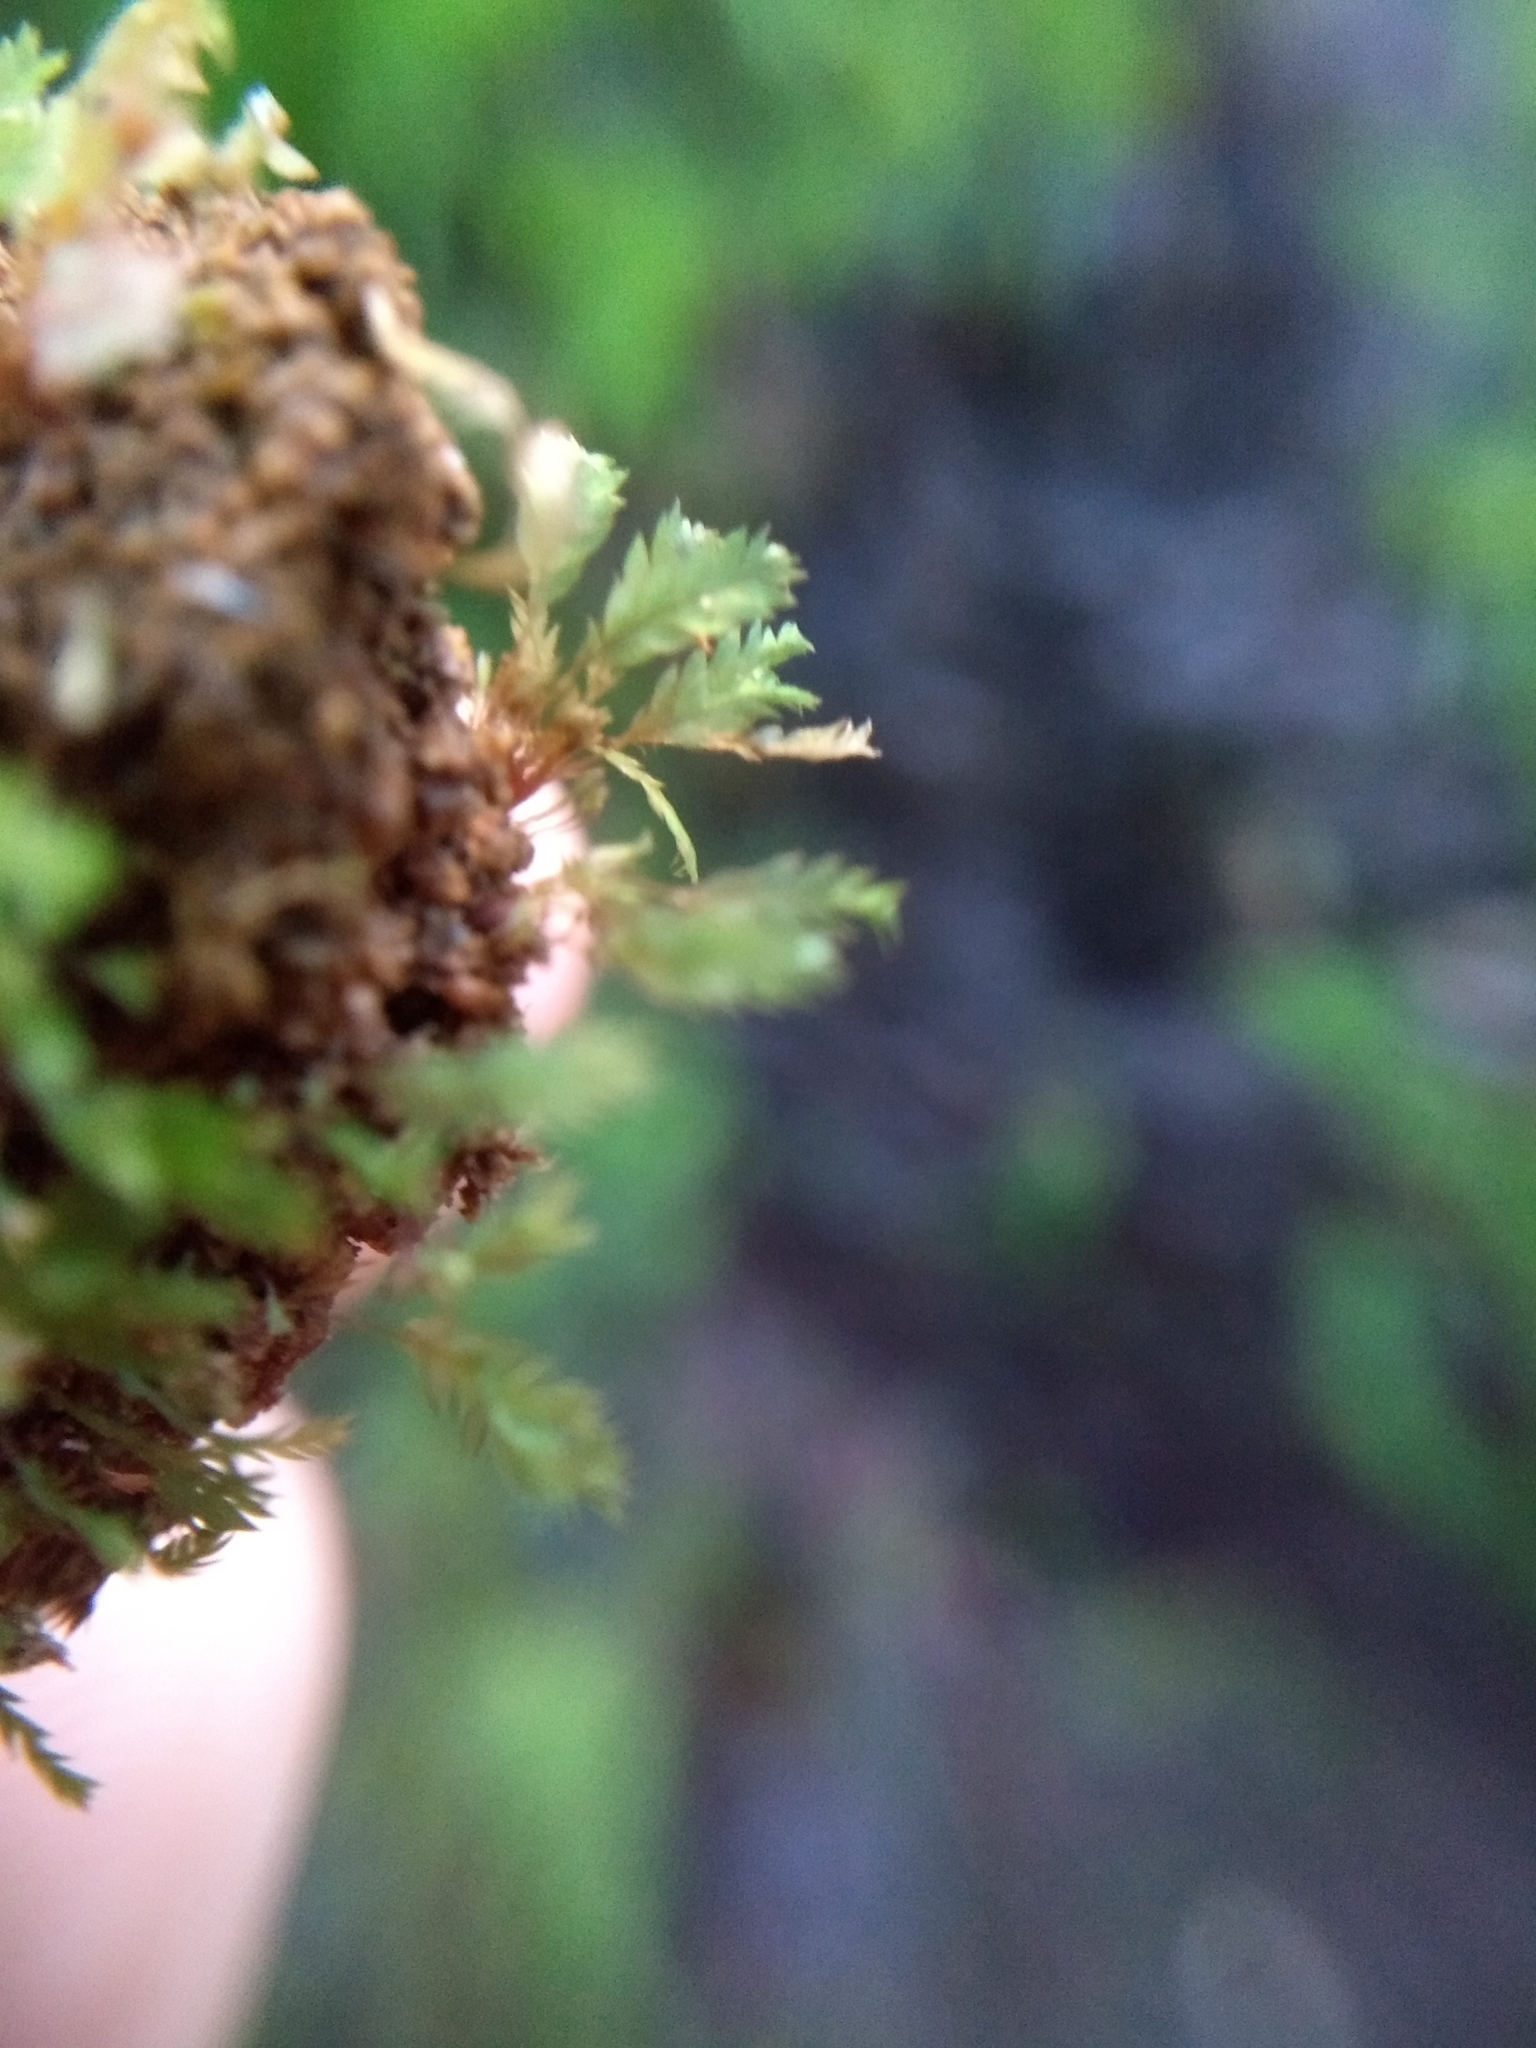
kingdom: Plantae
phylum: Bryophyta
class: Bryopsida
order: Dicranales
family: Schistostegaceae
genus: Schistostega
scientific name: Schistostega pennata
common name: Luminous moss
